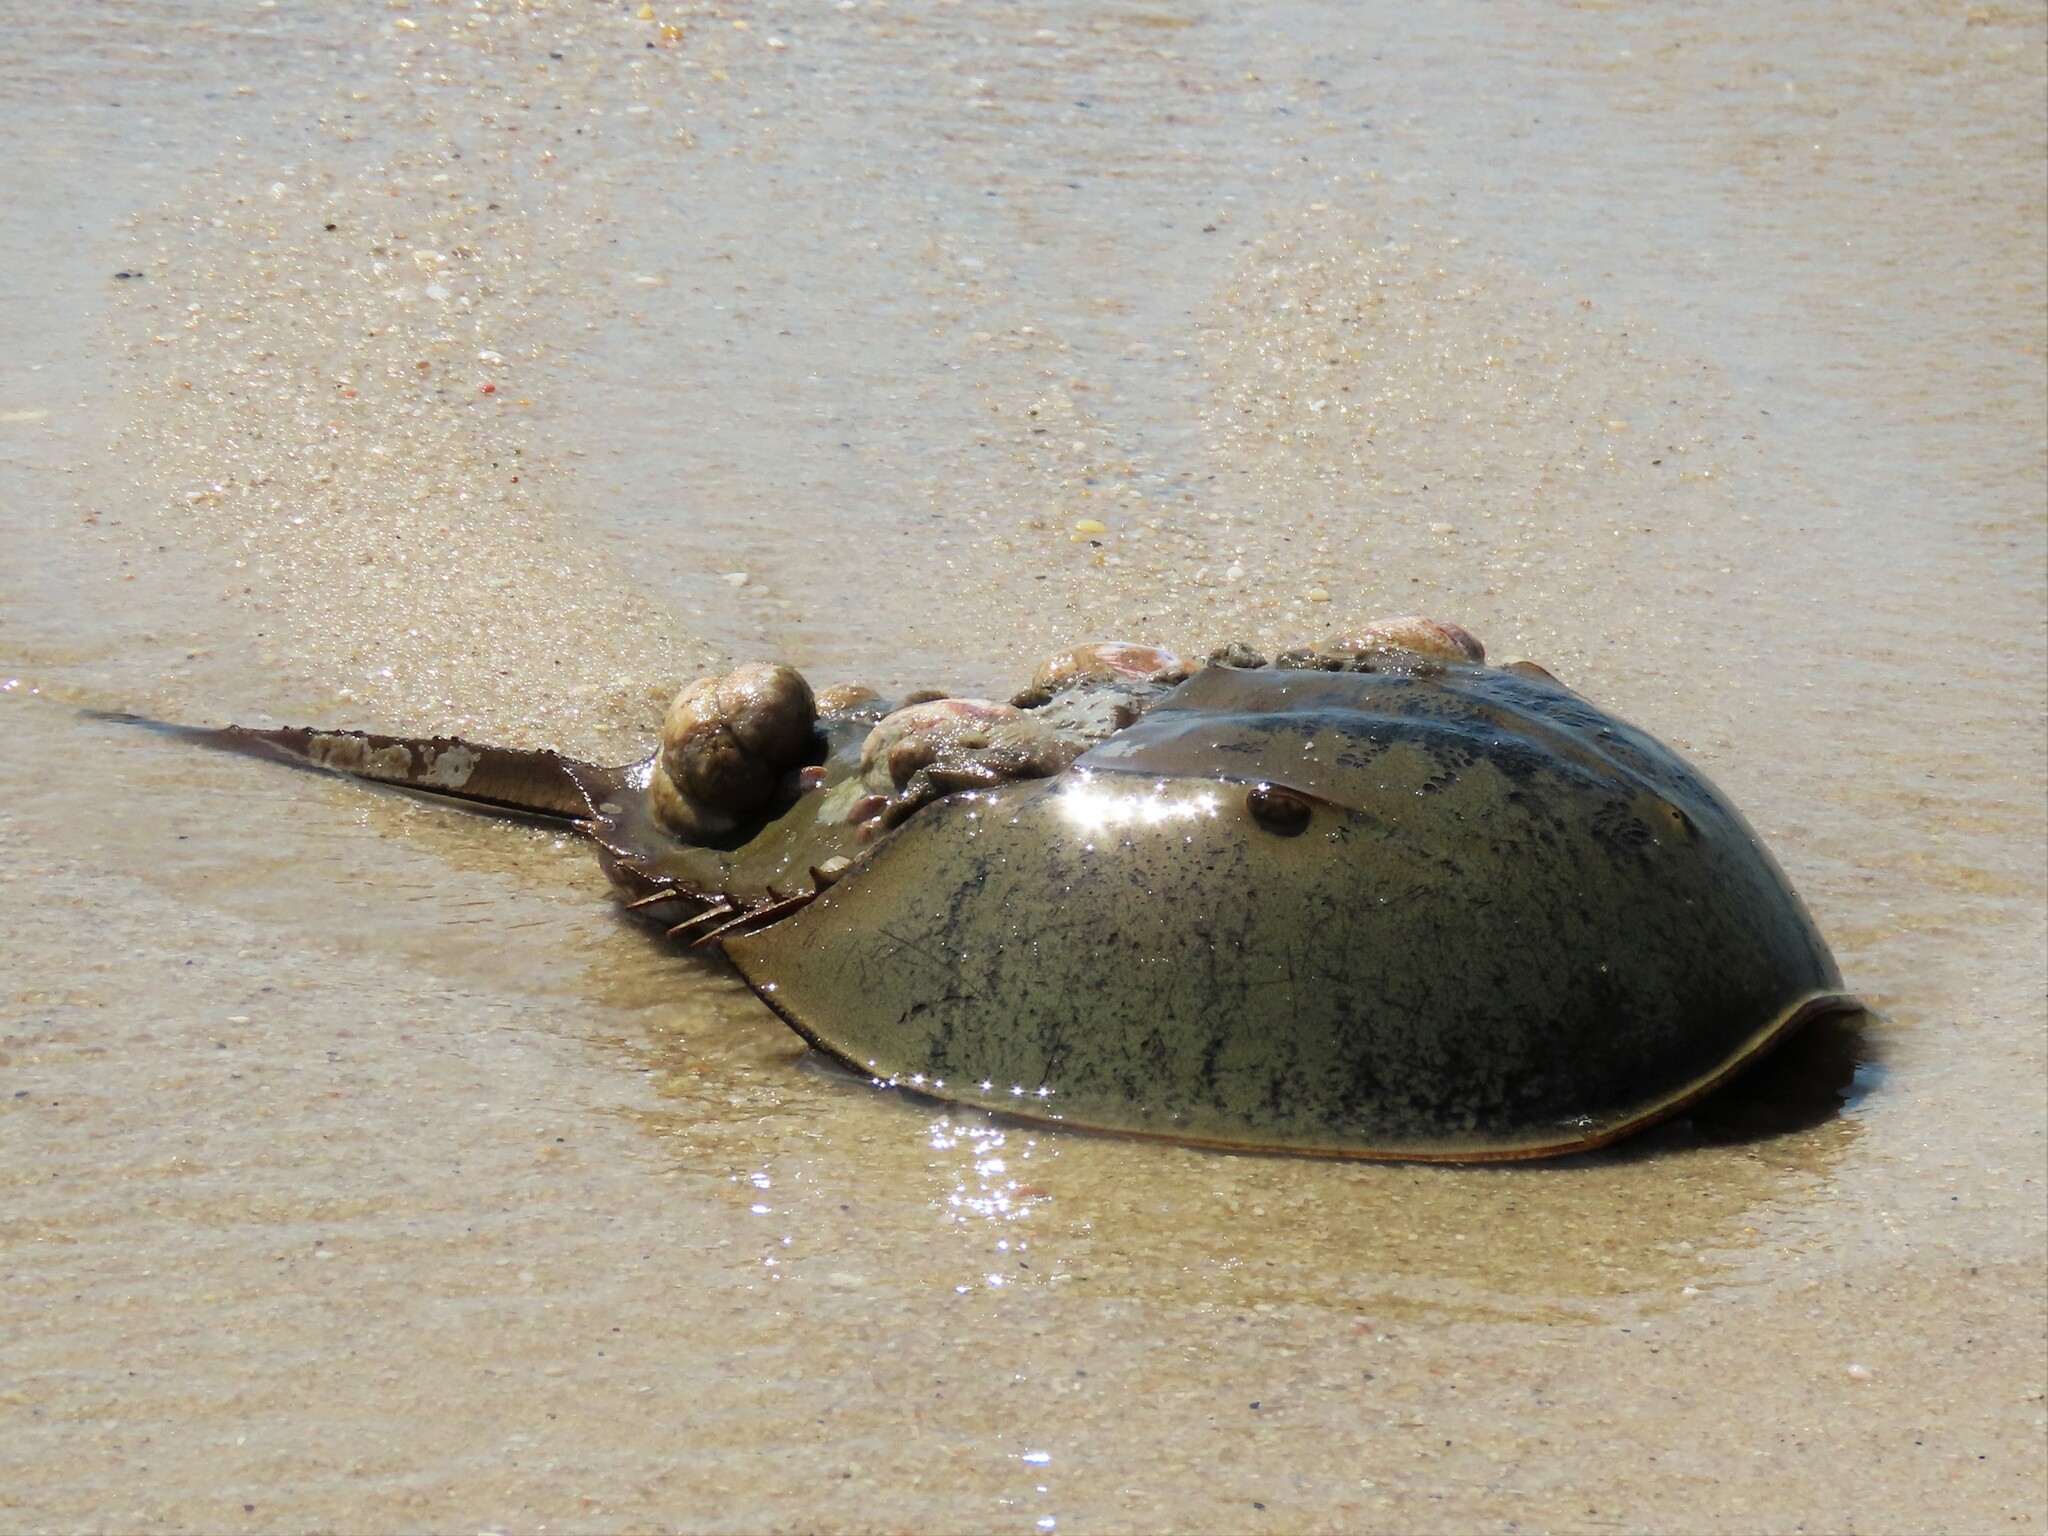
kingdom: Animalia
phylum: Arthropoda
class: Merostomata
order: Xiphosurida
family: Limulidae
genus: Limulus
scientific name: Limulus polyphemus
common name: Horseshoe crab
